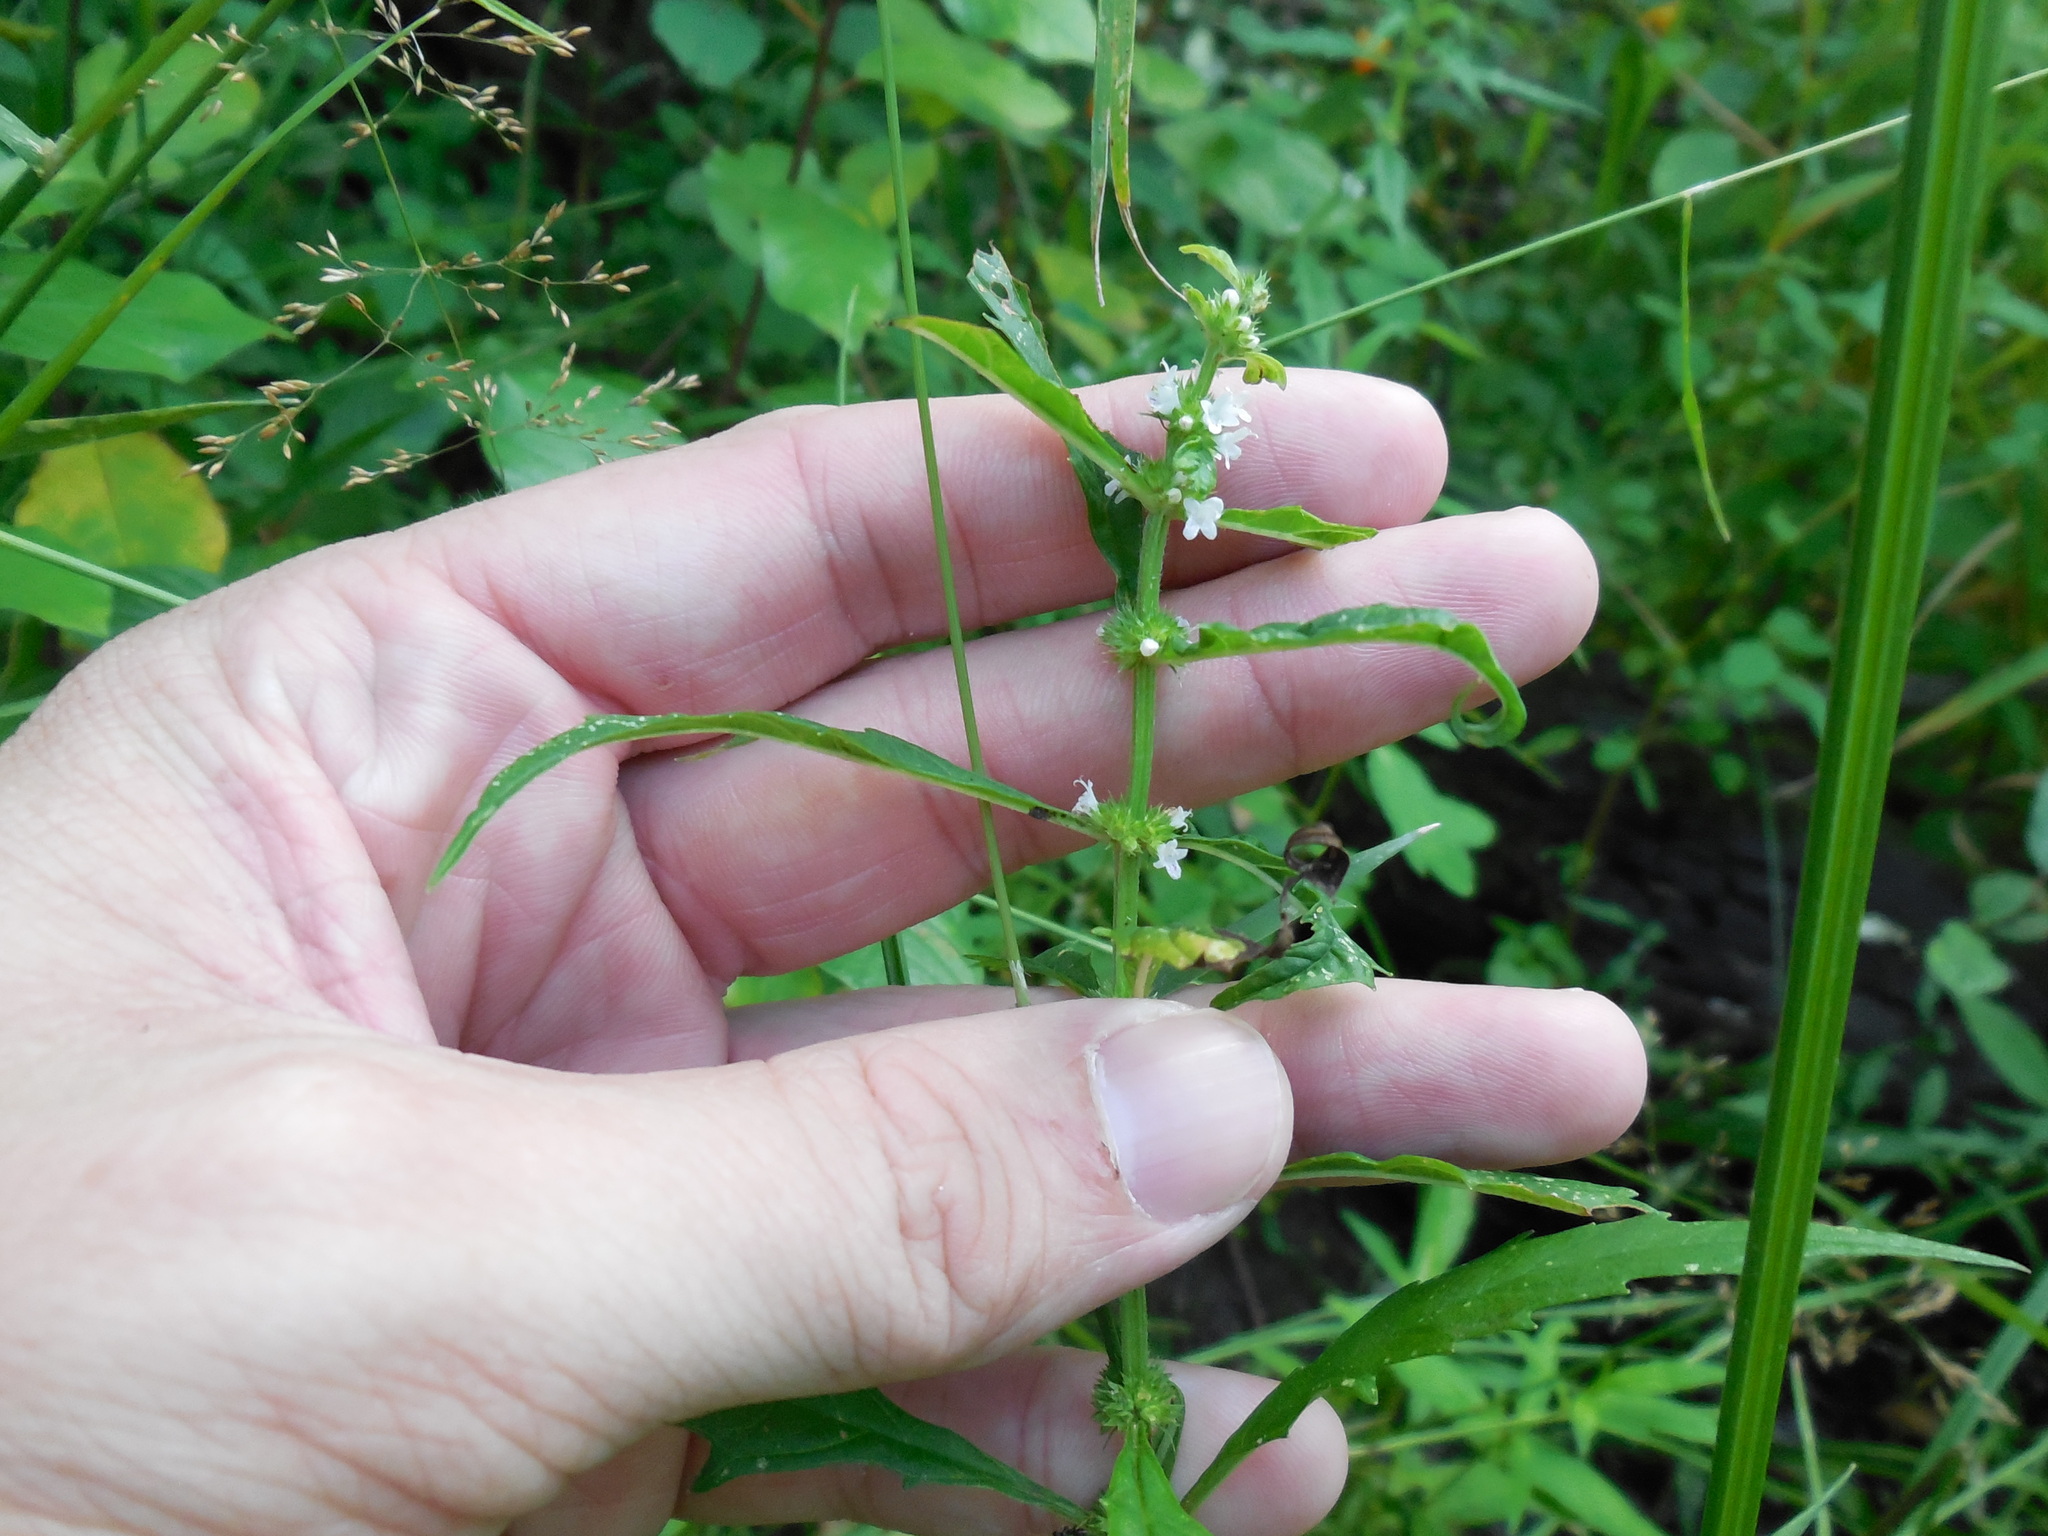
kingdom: Plantae
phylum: Tracheophyta
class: Magnoliopsida
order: Lamiales
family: Lamiaceae
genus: Lycopus
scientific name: Lycopus americanus
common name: American bugleweed
